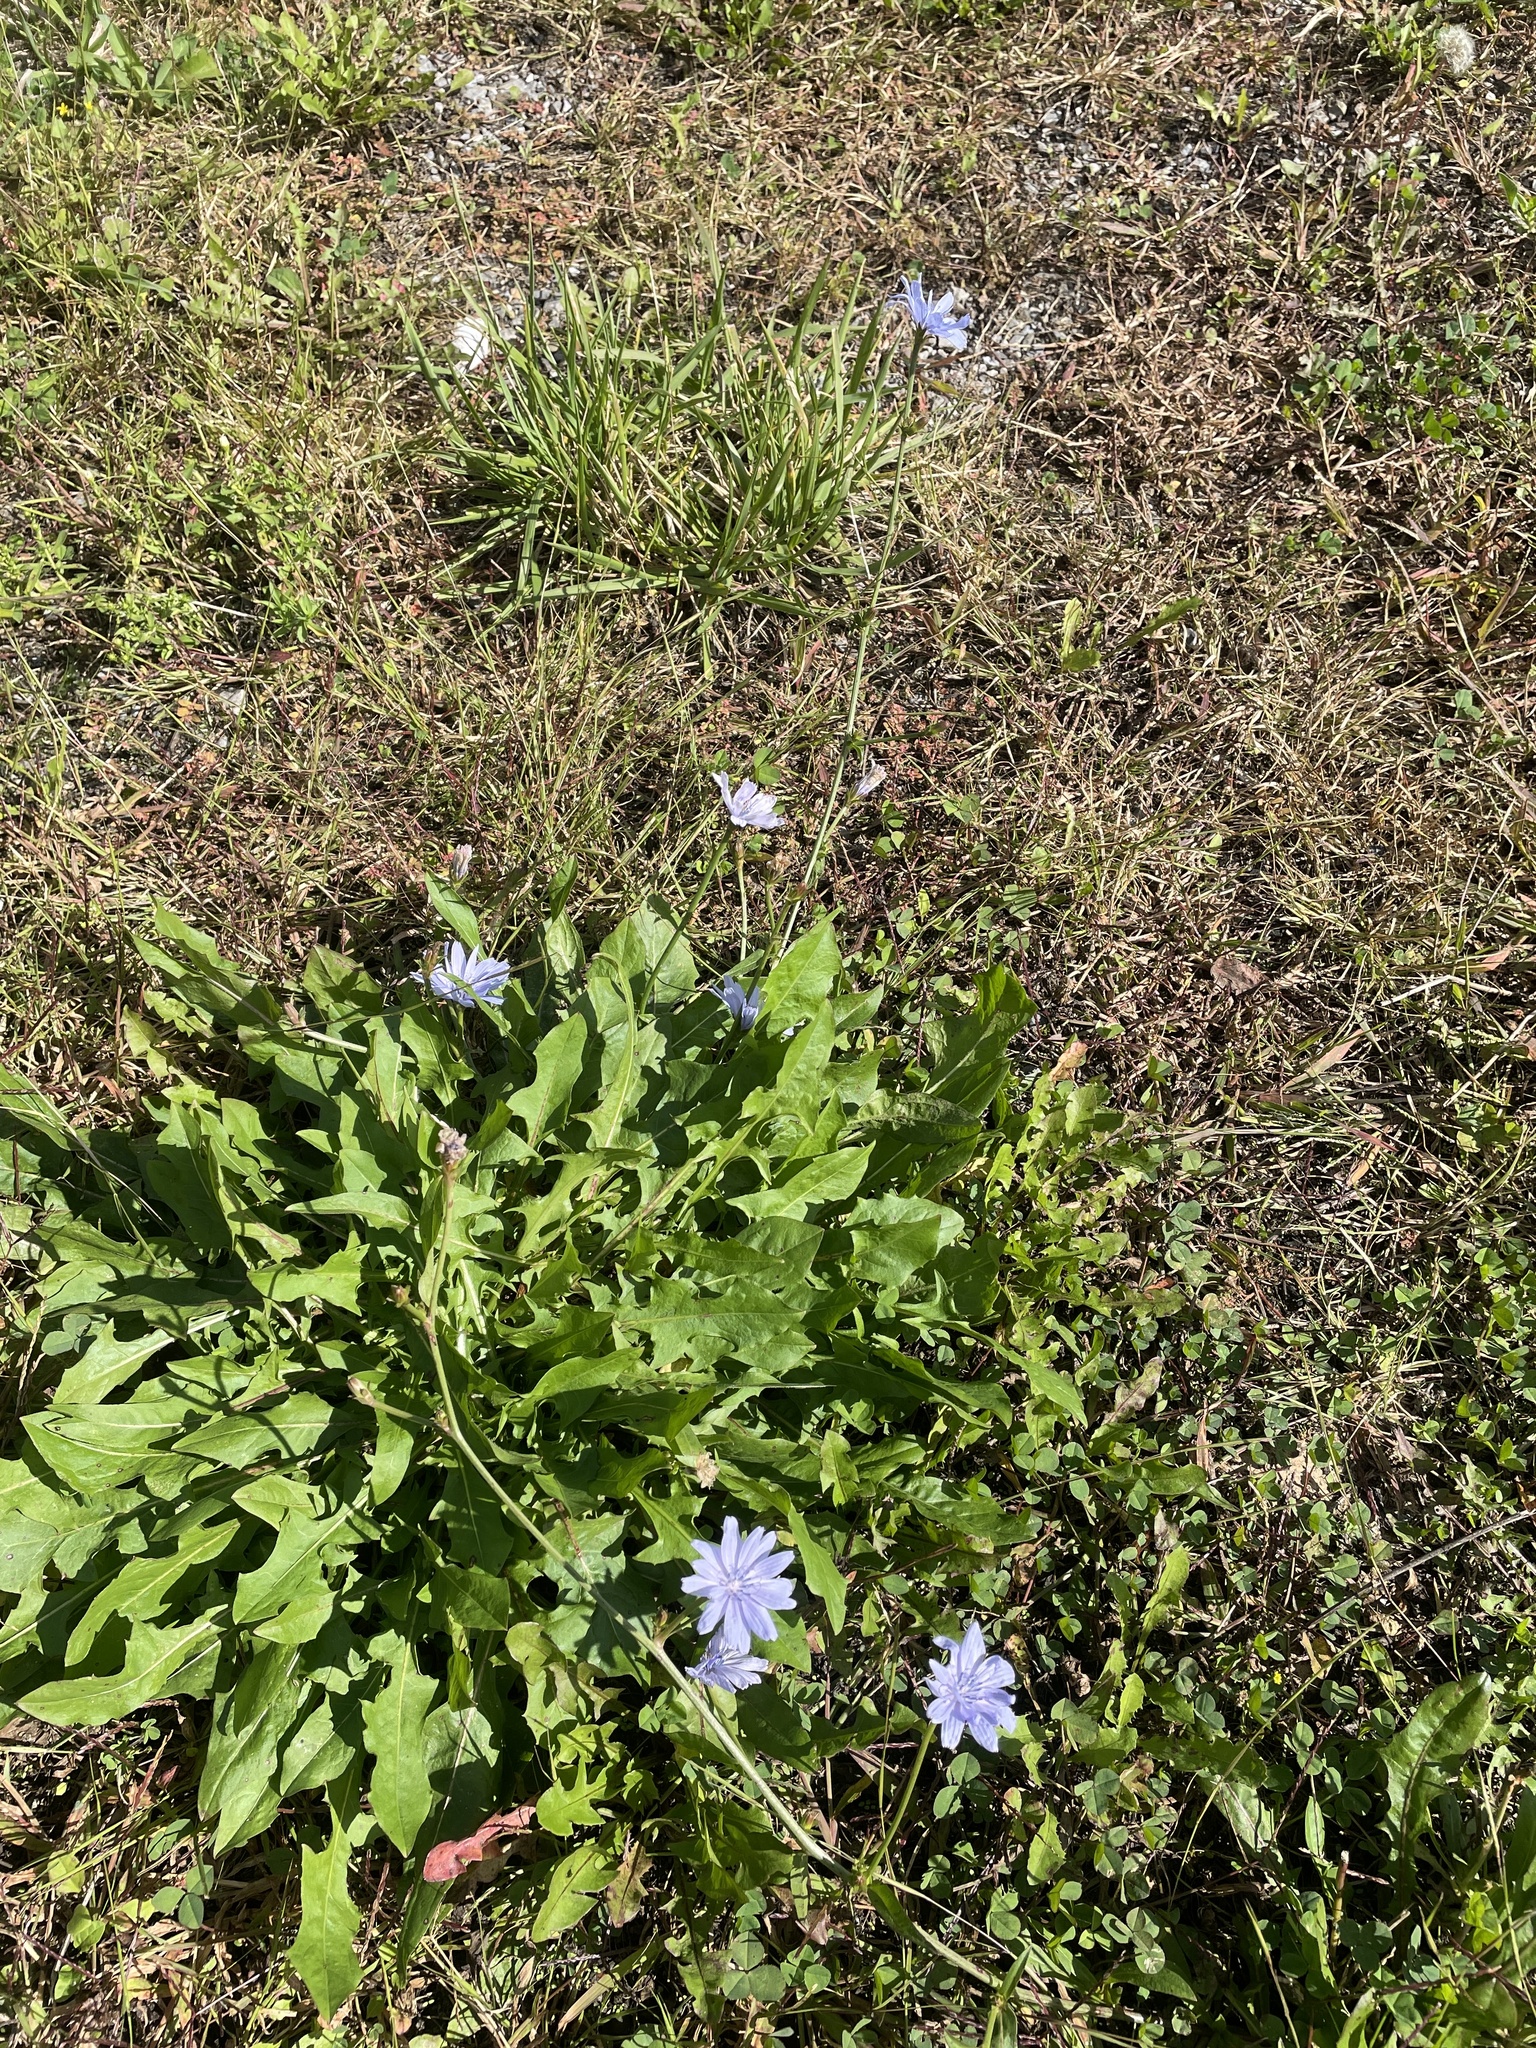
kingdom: Plantae
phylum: Tracheophyta
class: Magnoliopsida
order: Asterales
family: Asteraceae
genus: Cichorium
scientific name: Cichorium intybus
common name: Chicory
